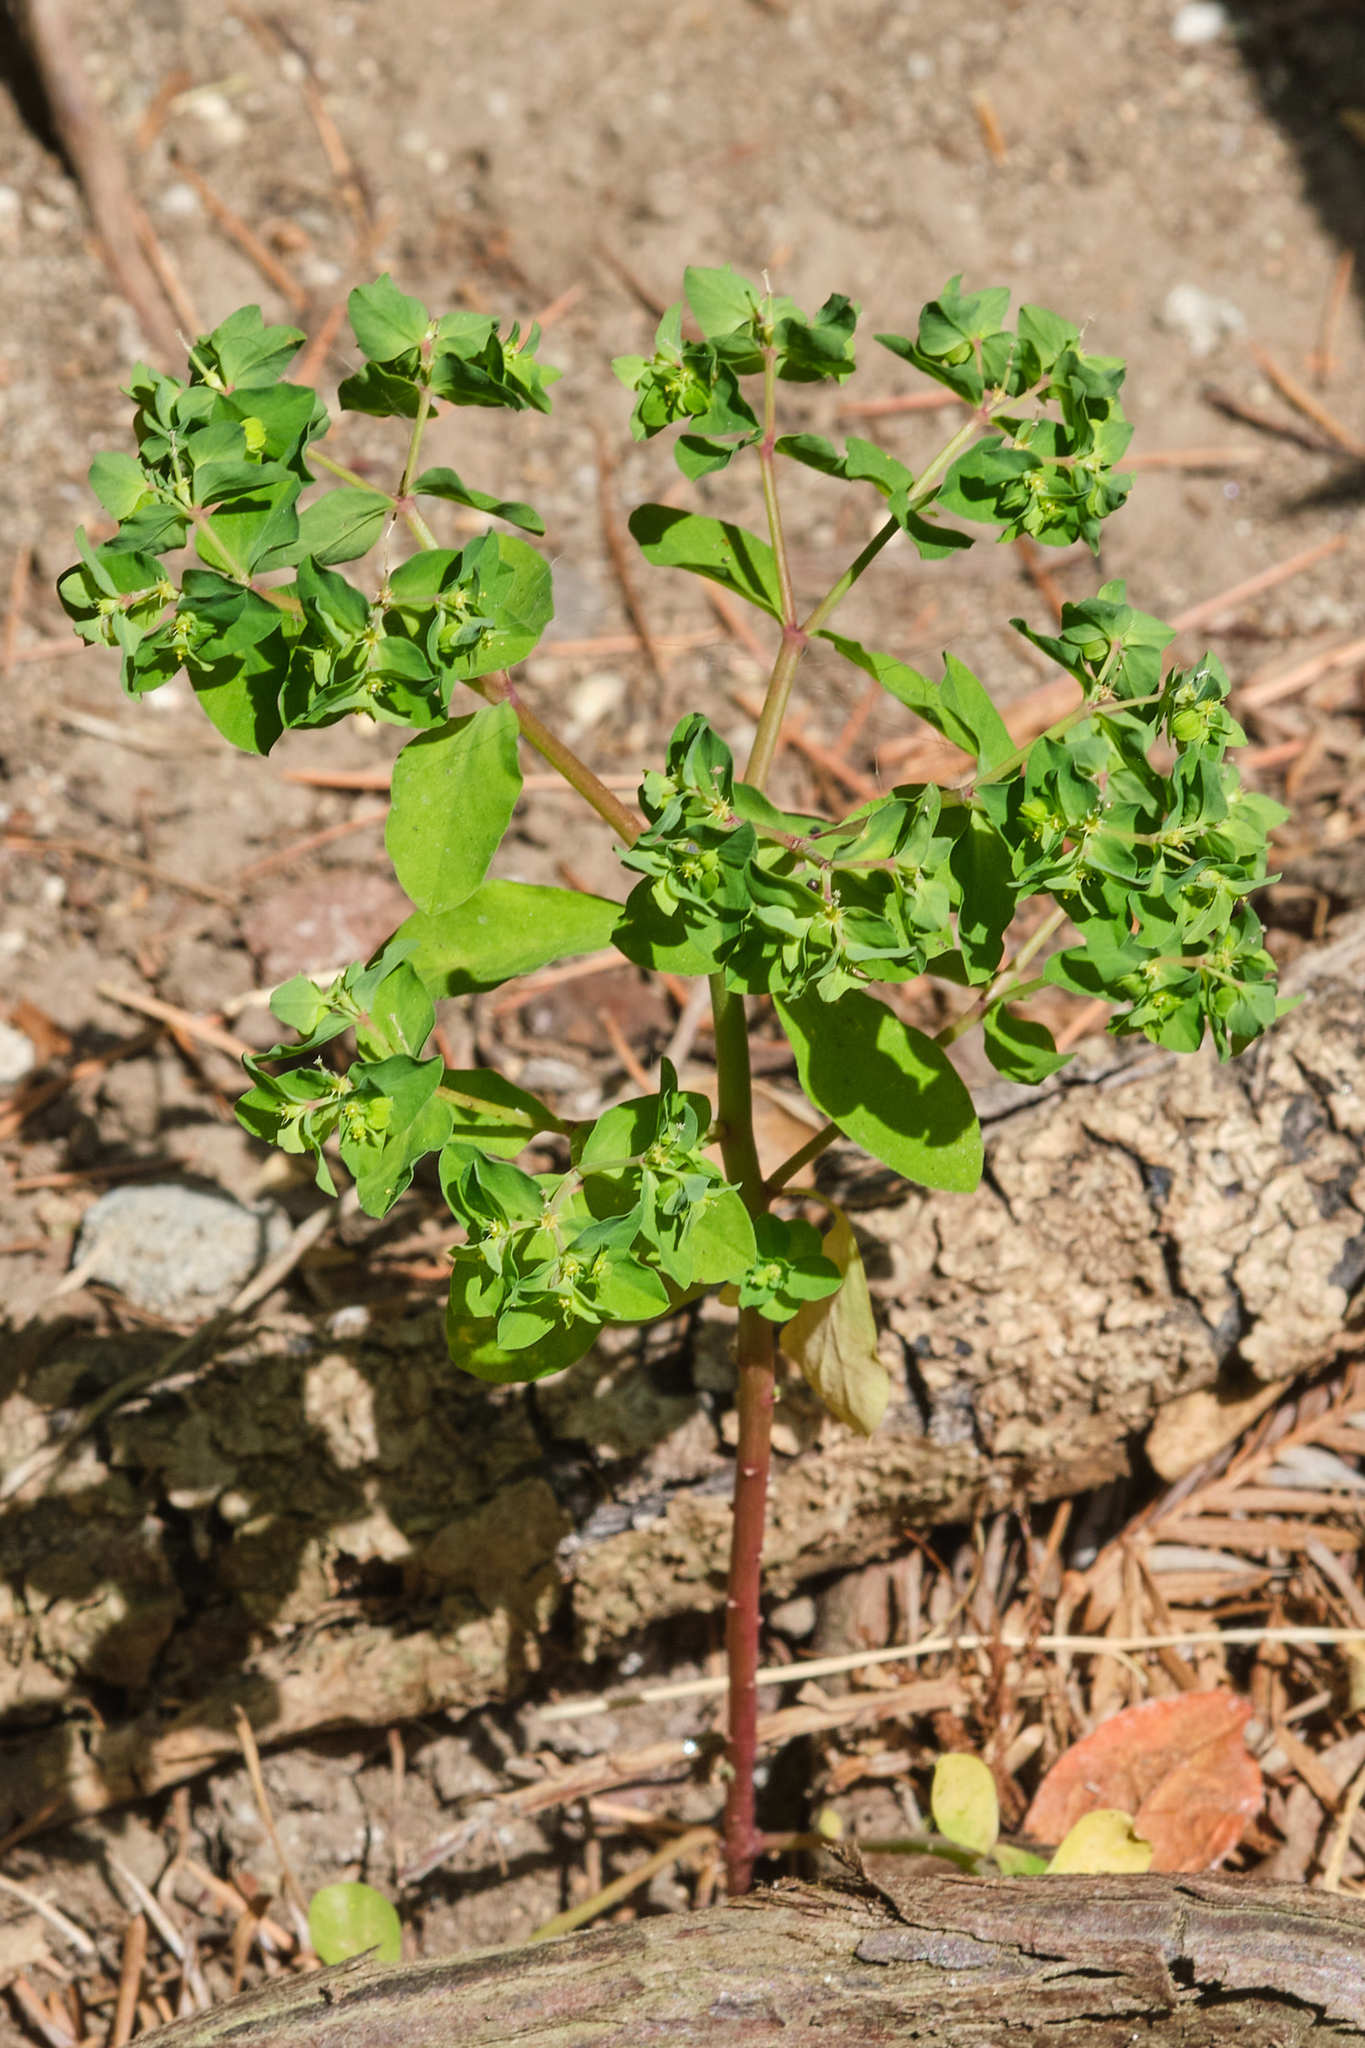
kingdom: Plantae
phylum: Tracheophyta
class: Magnoliopsida
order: Malpighiales
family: Euphorbiaceae
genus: Euphorbia
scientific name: Euphorbia peplus
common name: Petty spurge
